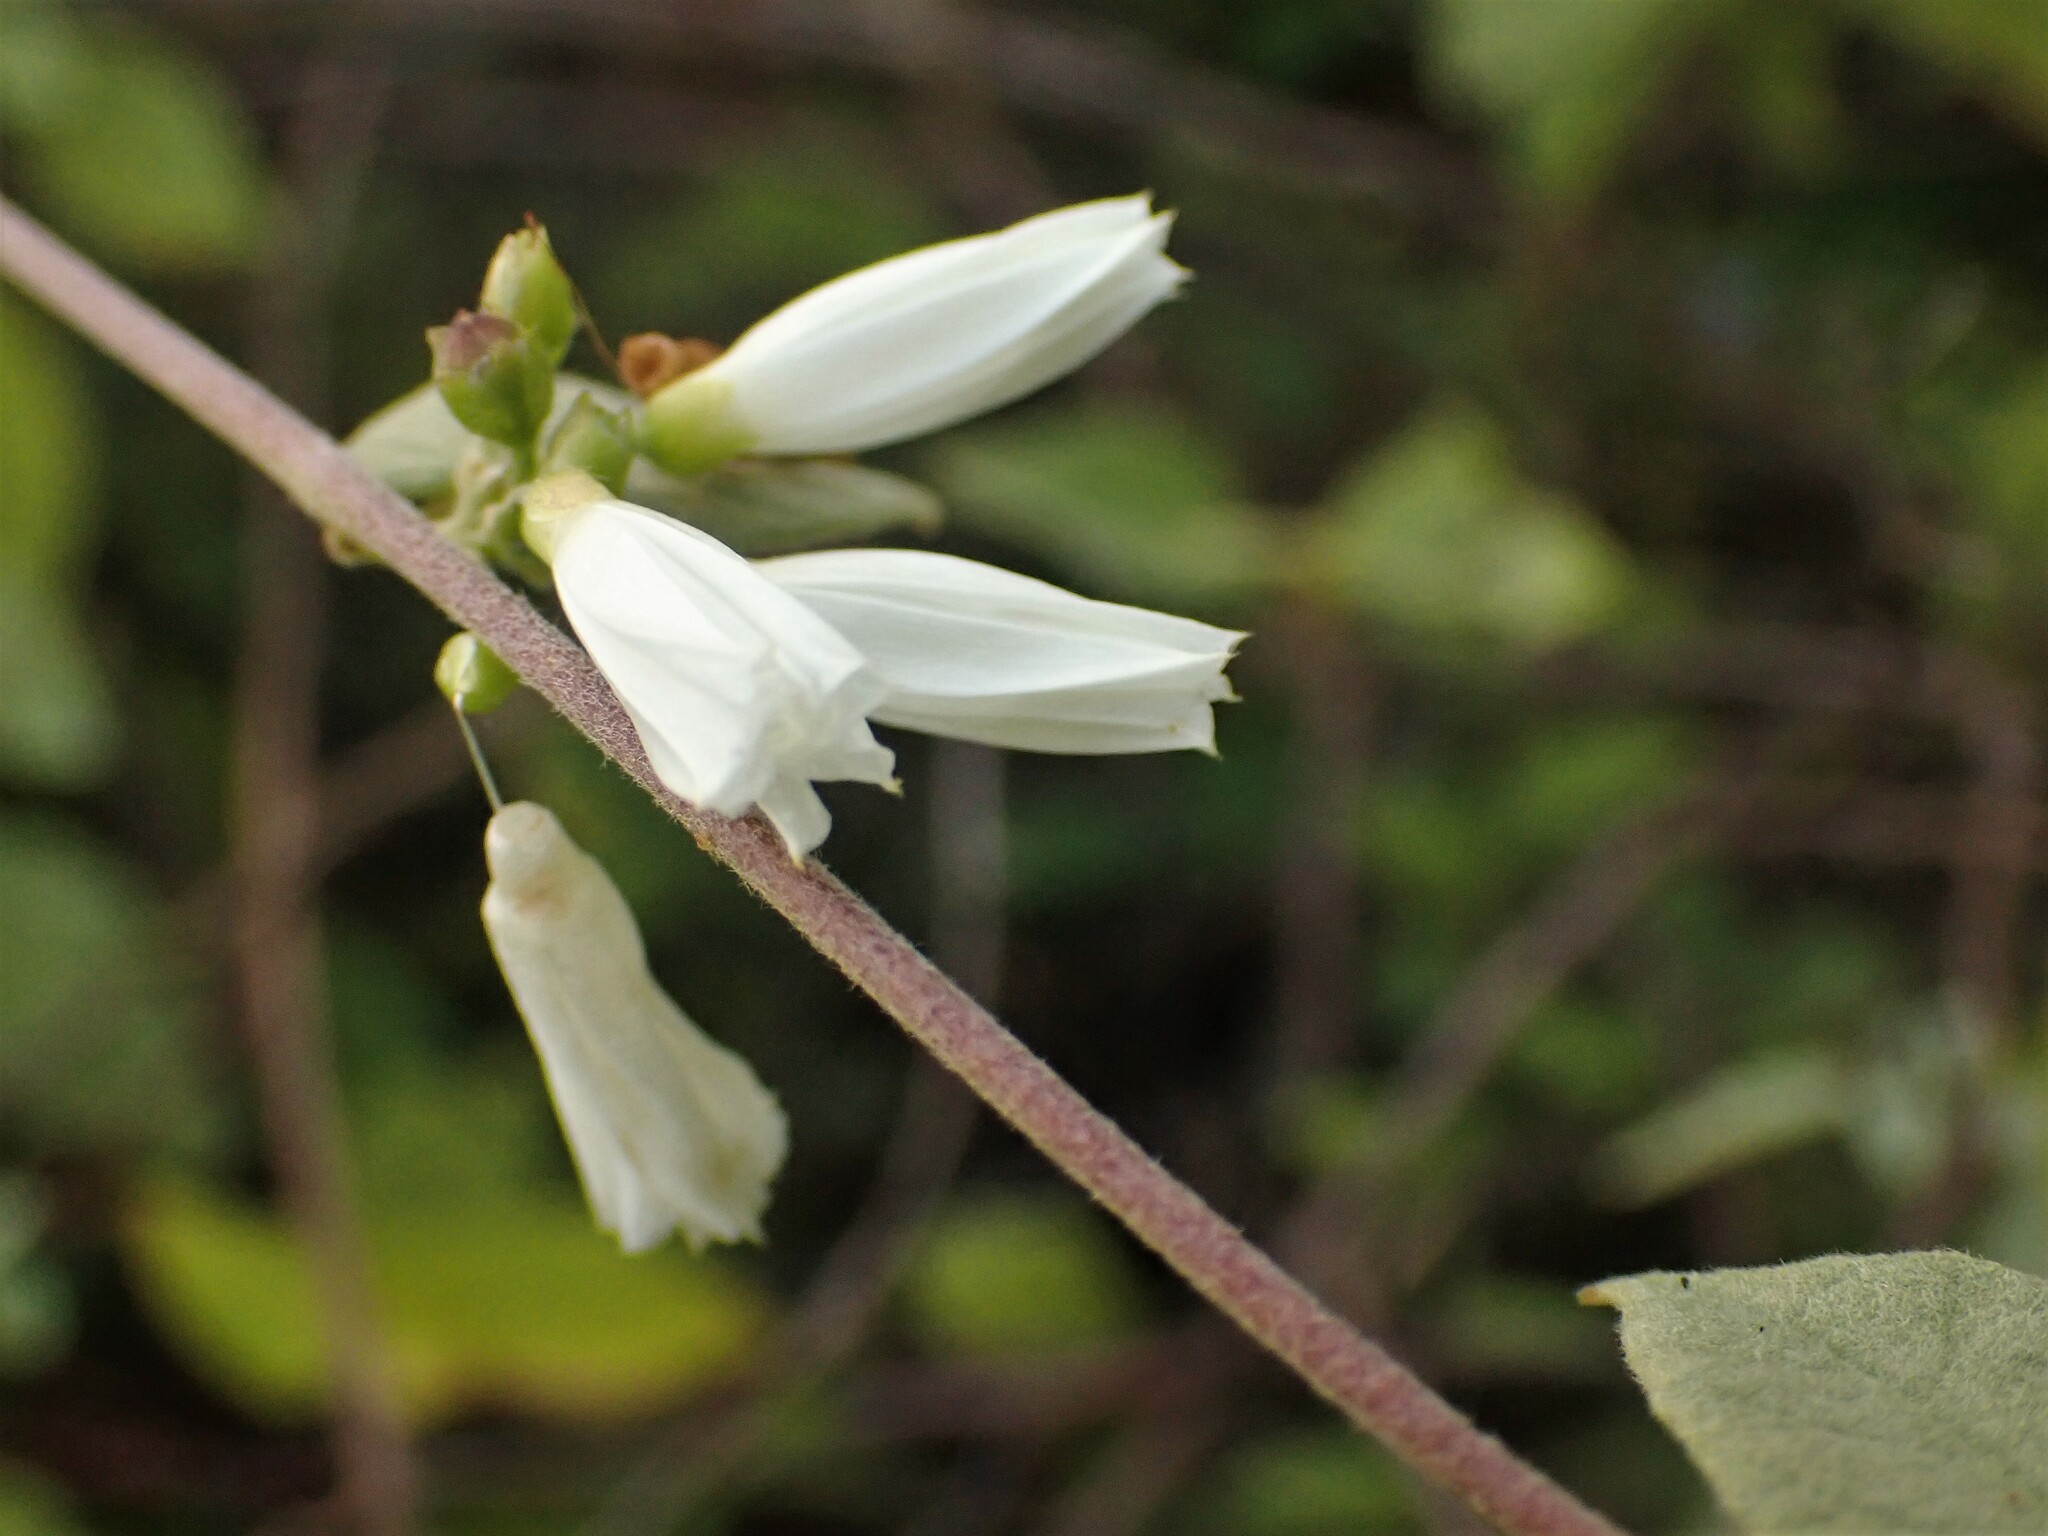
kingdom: Plantae
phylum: Tracheophyta
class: Magnoliopsida
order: Solanales
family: Convolvulaceae
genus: Jacquemontia
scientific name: Jacquemontia nodiflora
